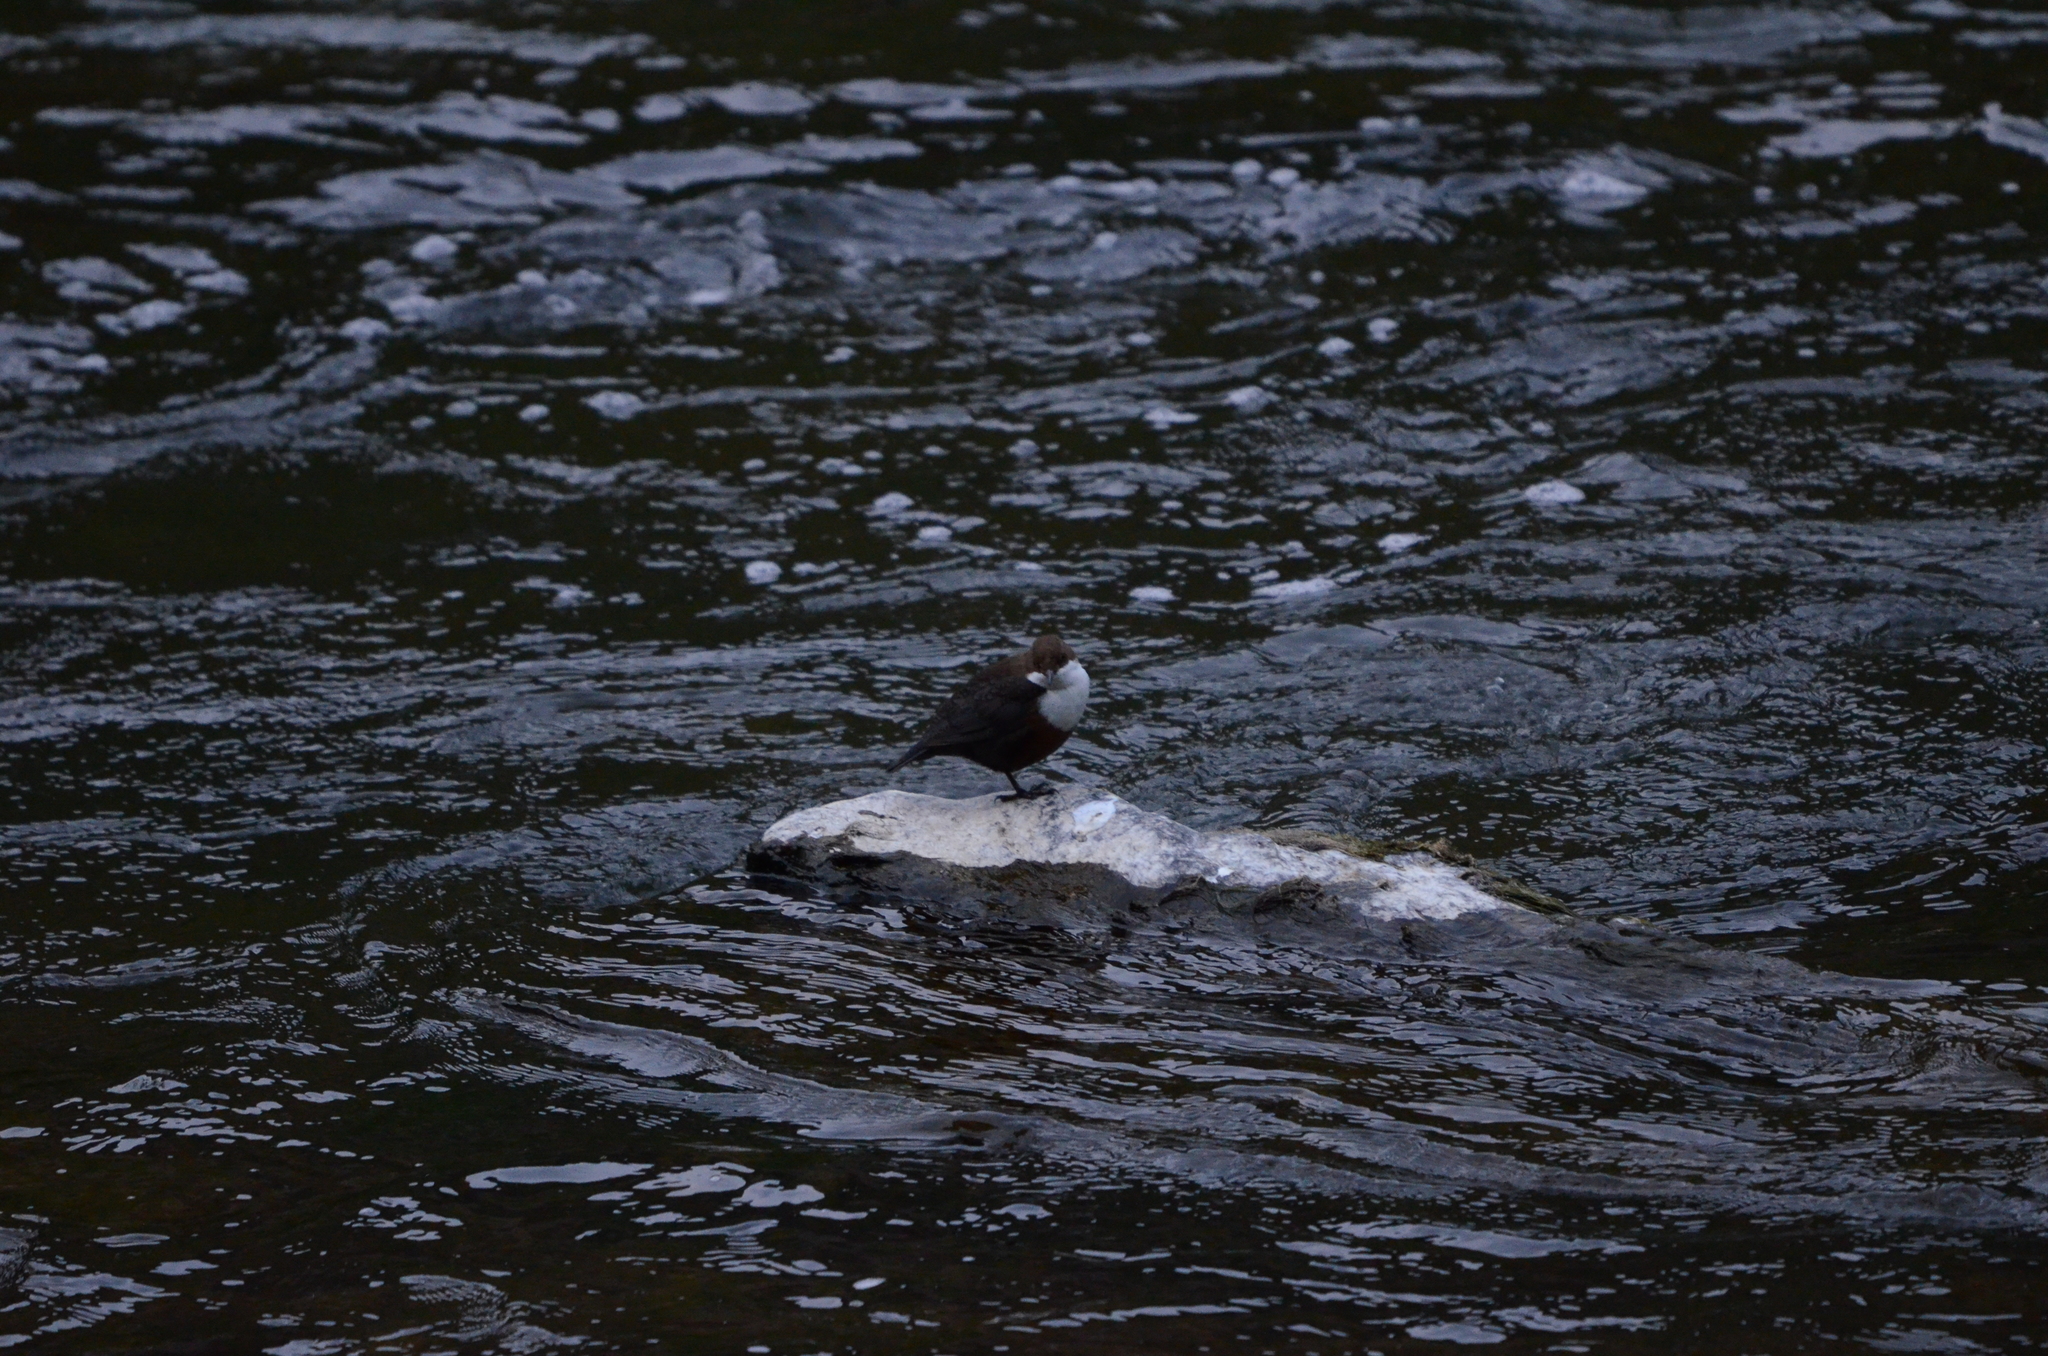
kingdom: Animalia
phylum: Chordata
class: Aves
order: Passeriformes
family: Cinclidae
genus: Cinclus
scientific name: Cinclus cinclus
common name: White-throated dipper
